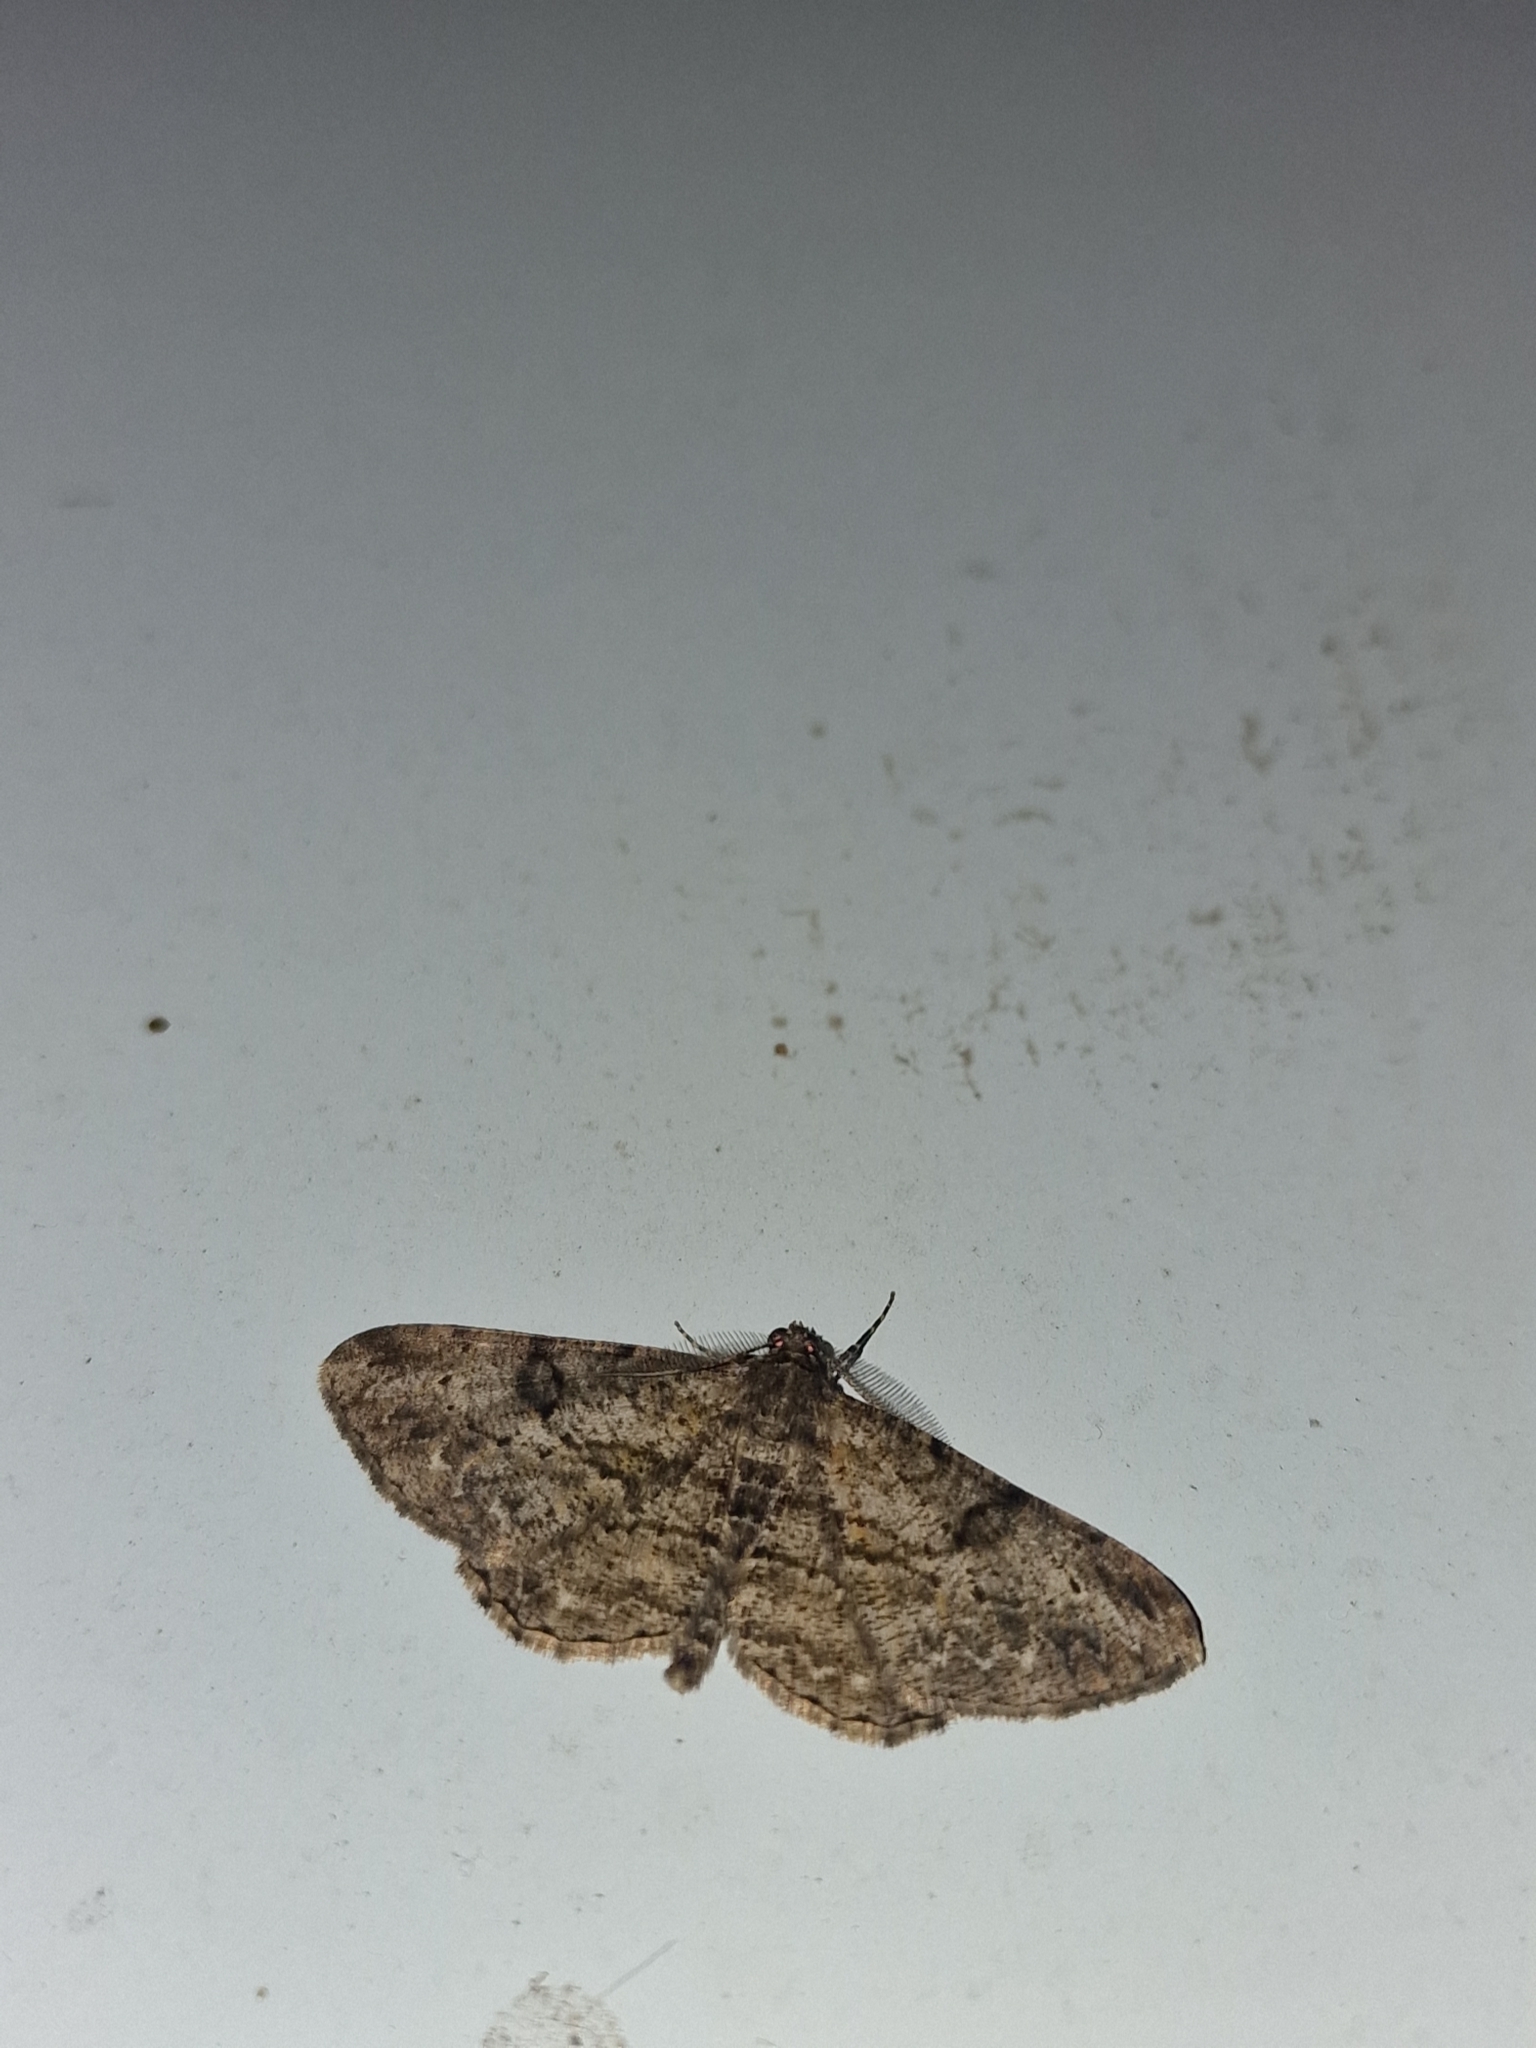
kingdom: Animalia
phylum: Arthropoda
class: Insecta
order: Lepidoptera
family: Geometridae
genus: Peribatodes
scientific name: Peribatodes rhomboidaria
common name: Willow beauty
